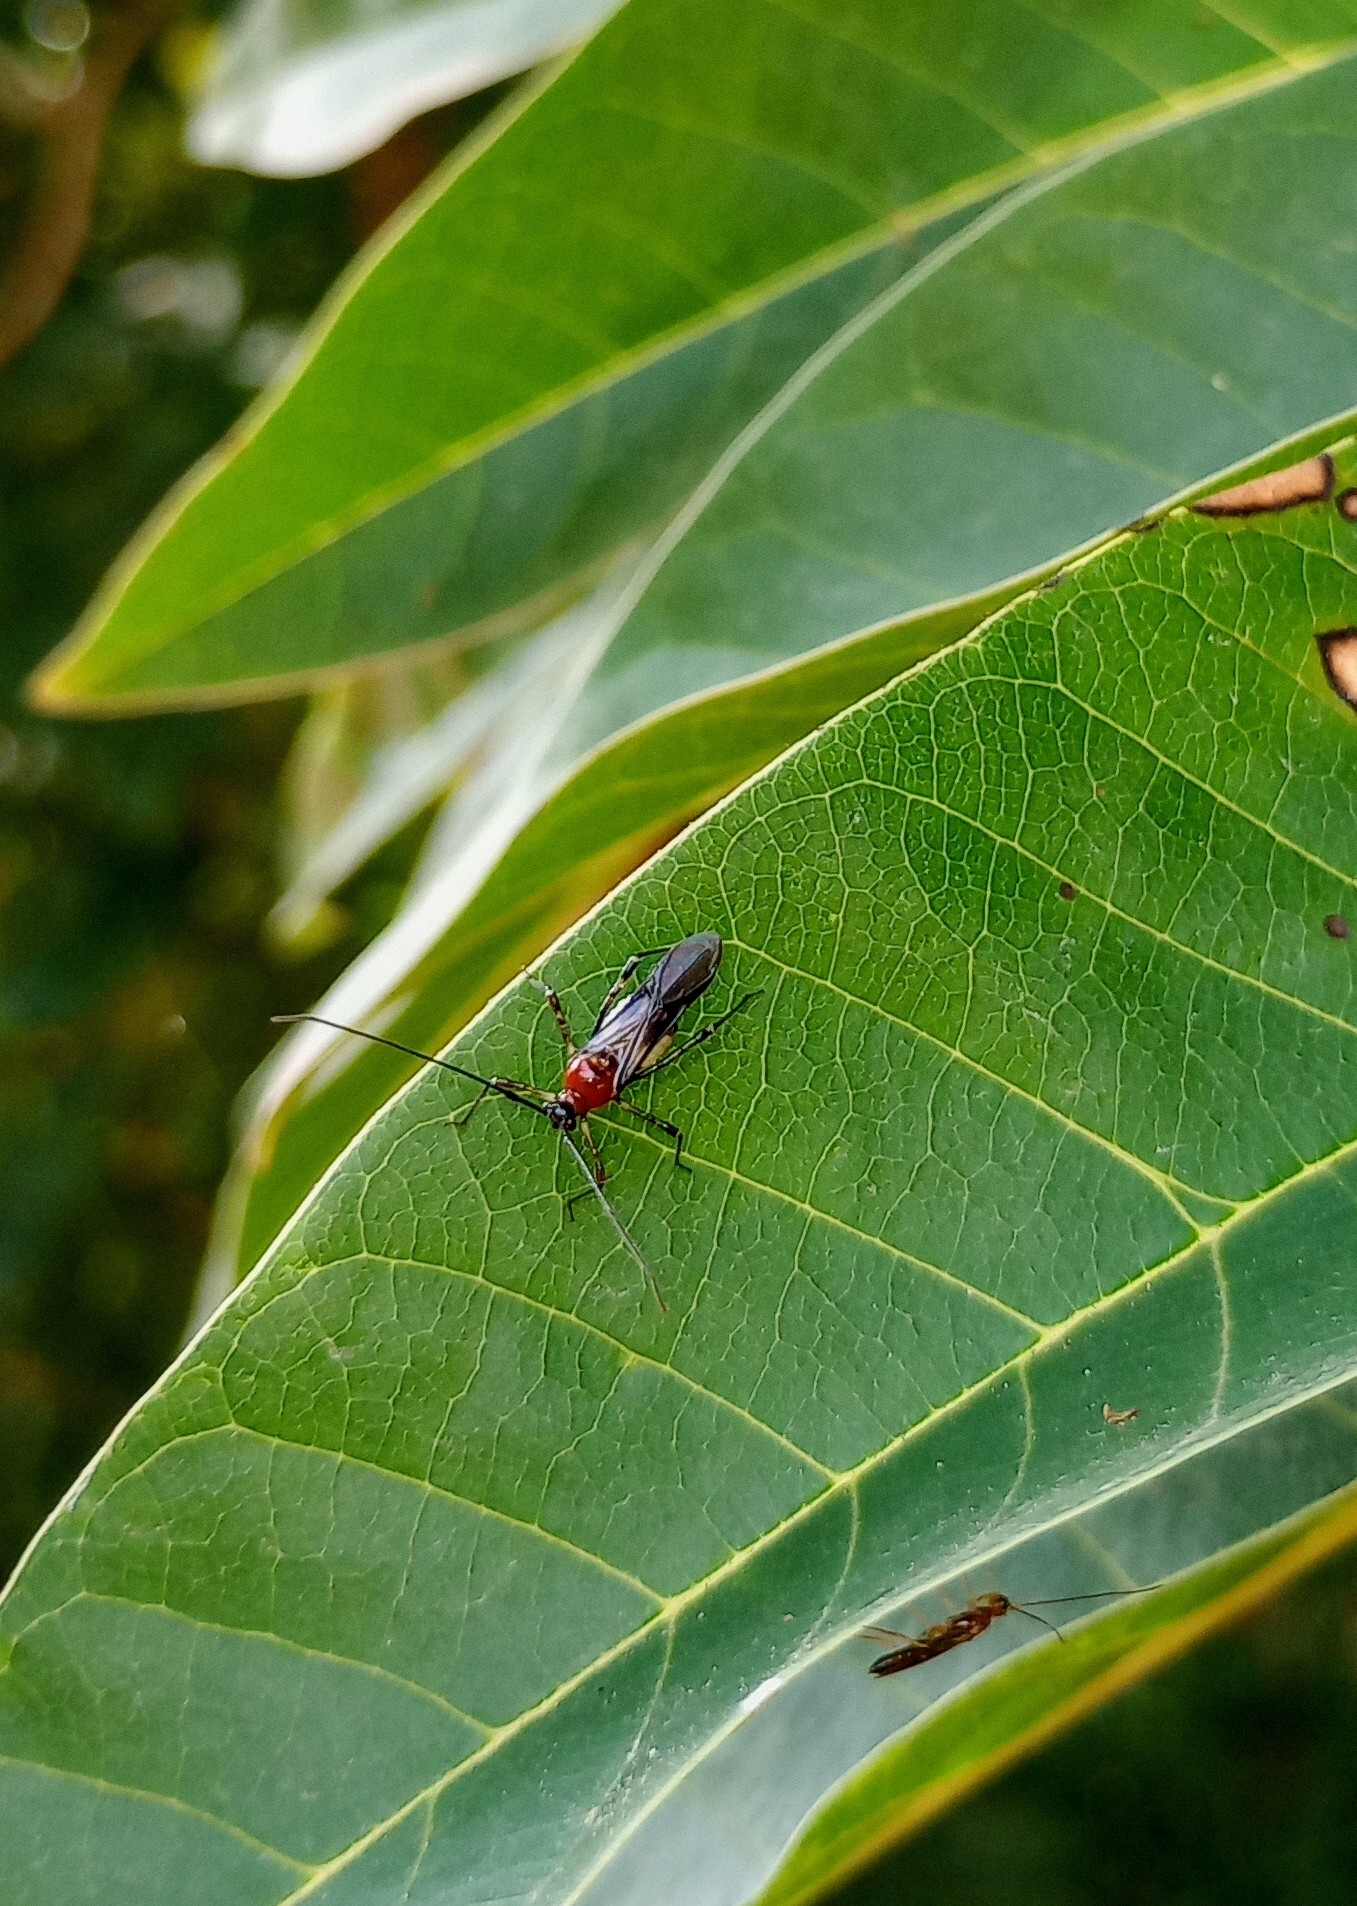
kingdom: Animalia
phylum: Arthropoda
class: Insecta
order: Hemiptera
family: Miridae
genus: Helopeltis
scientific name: Helopeltis antonii
